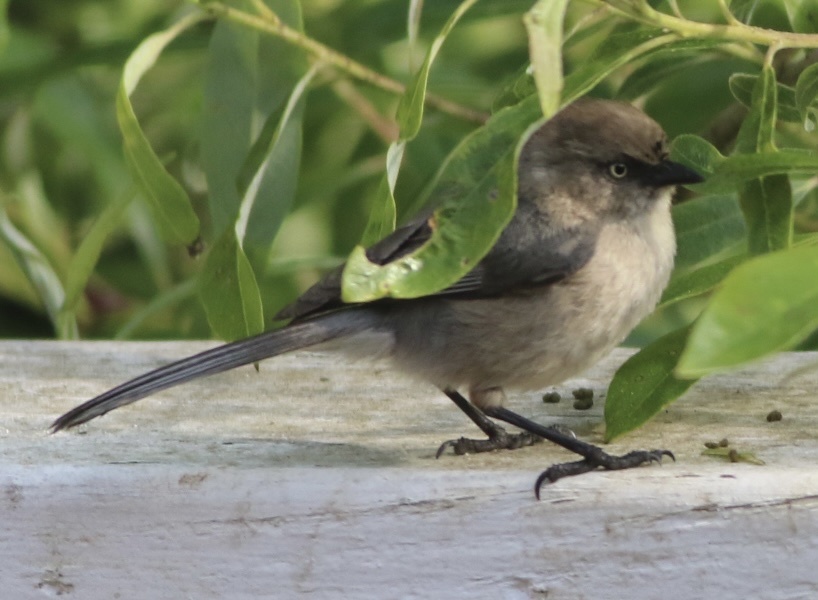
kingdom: Animalia
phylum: Chordata
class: Aves
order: Passeriformes
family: Aegithalidae
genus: Psaltriparus
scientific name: Psaltriparus minimus
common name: American bushtit
